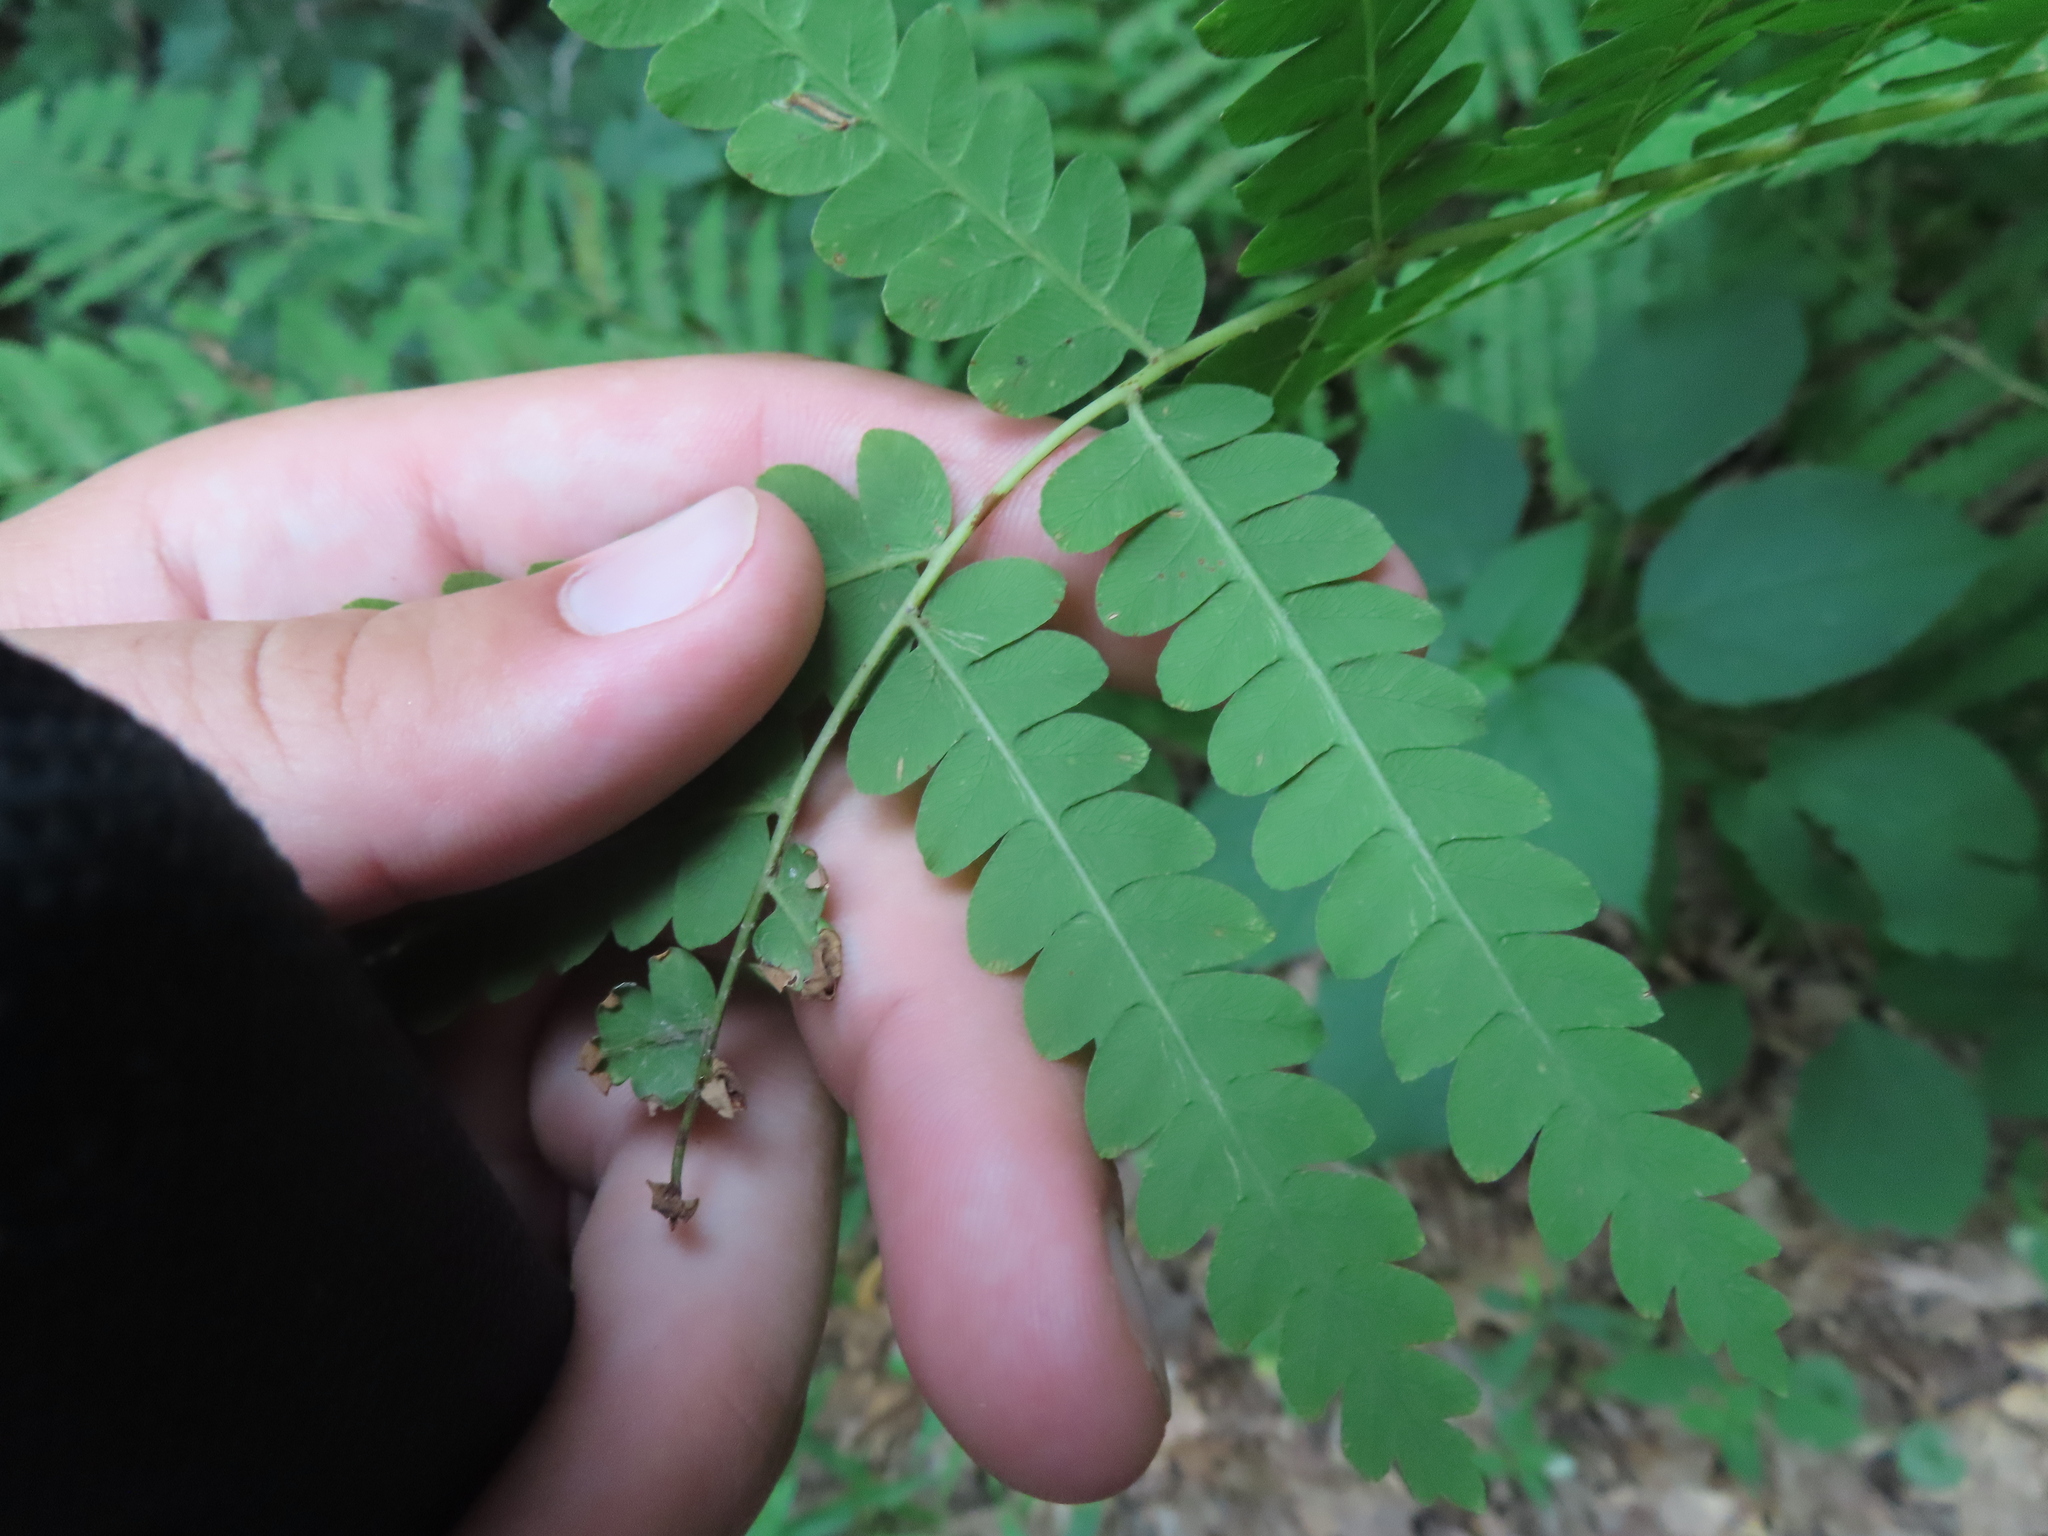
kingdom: Plantae
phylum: Tracheophyta
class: Polypodiopsida
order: Osmundales
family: Osmundaceae
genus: Claytosmunda
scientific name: Claytosmunda claytoniana
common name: Clayton's fern
